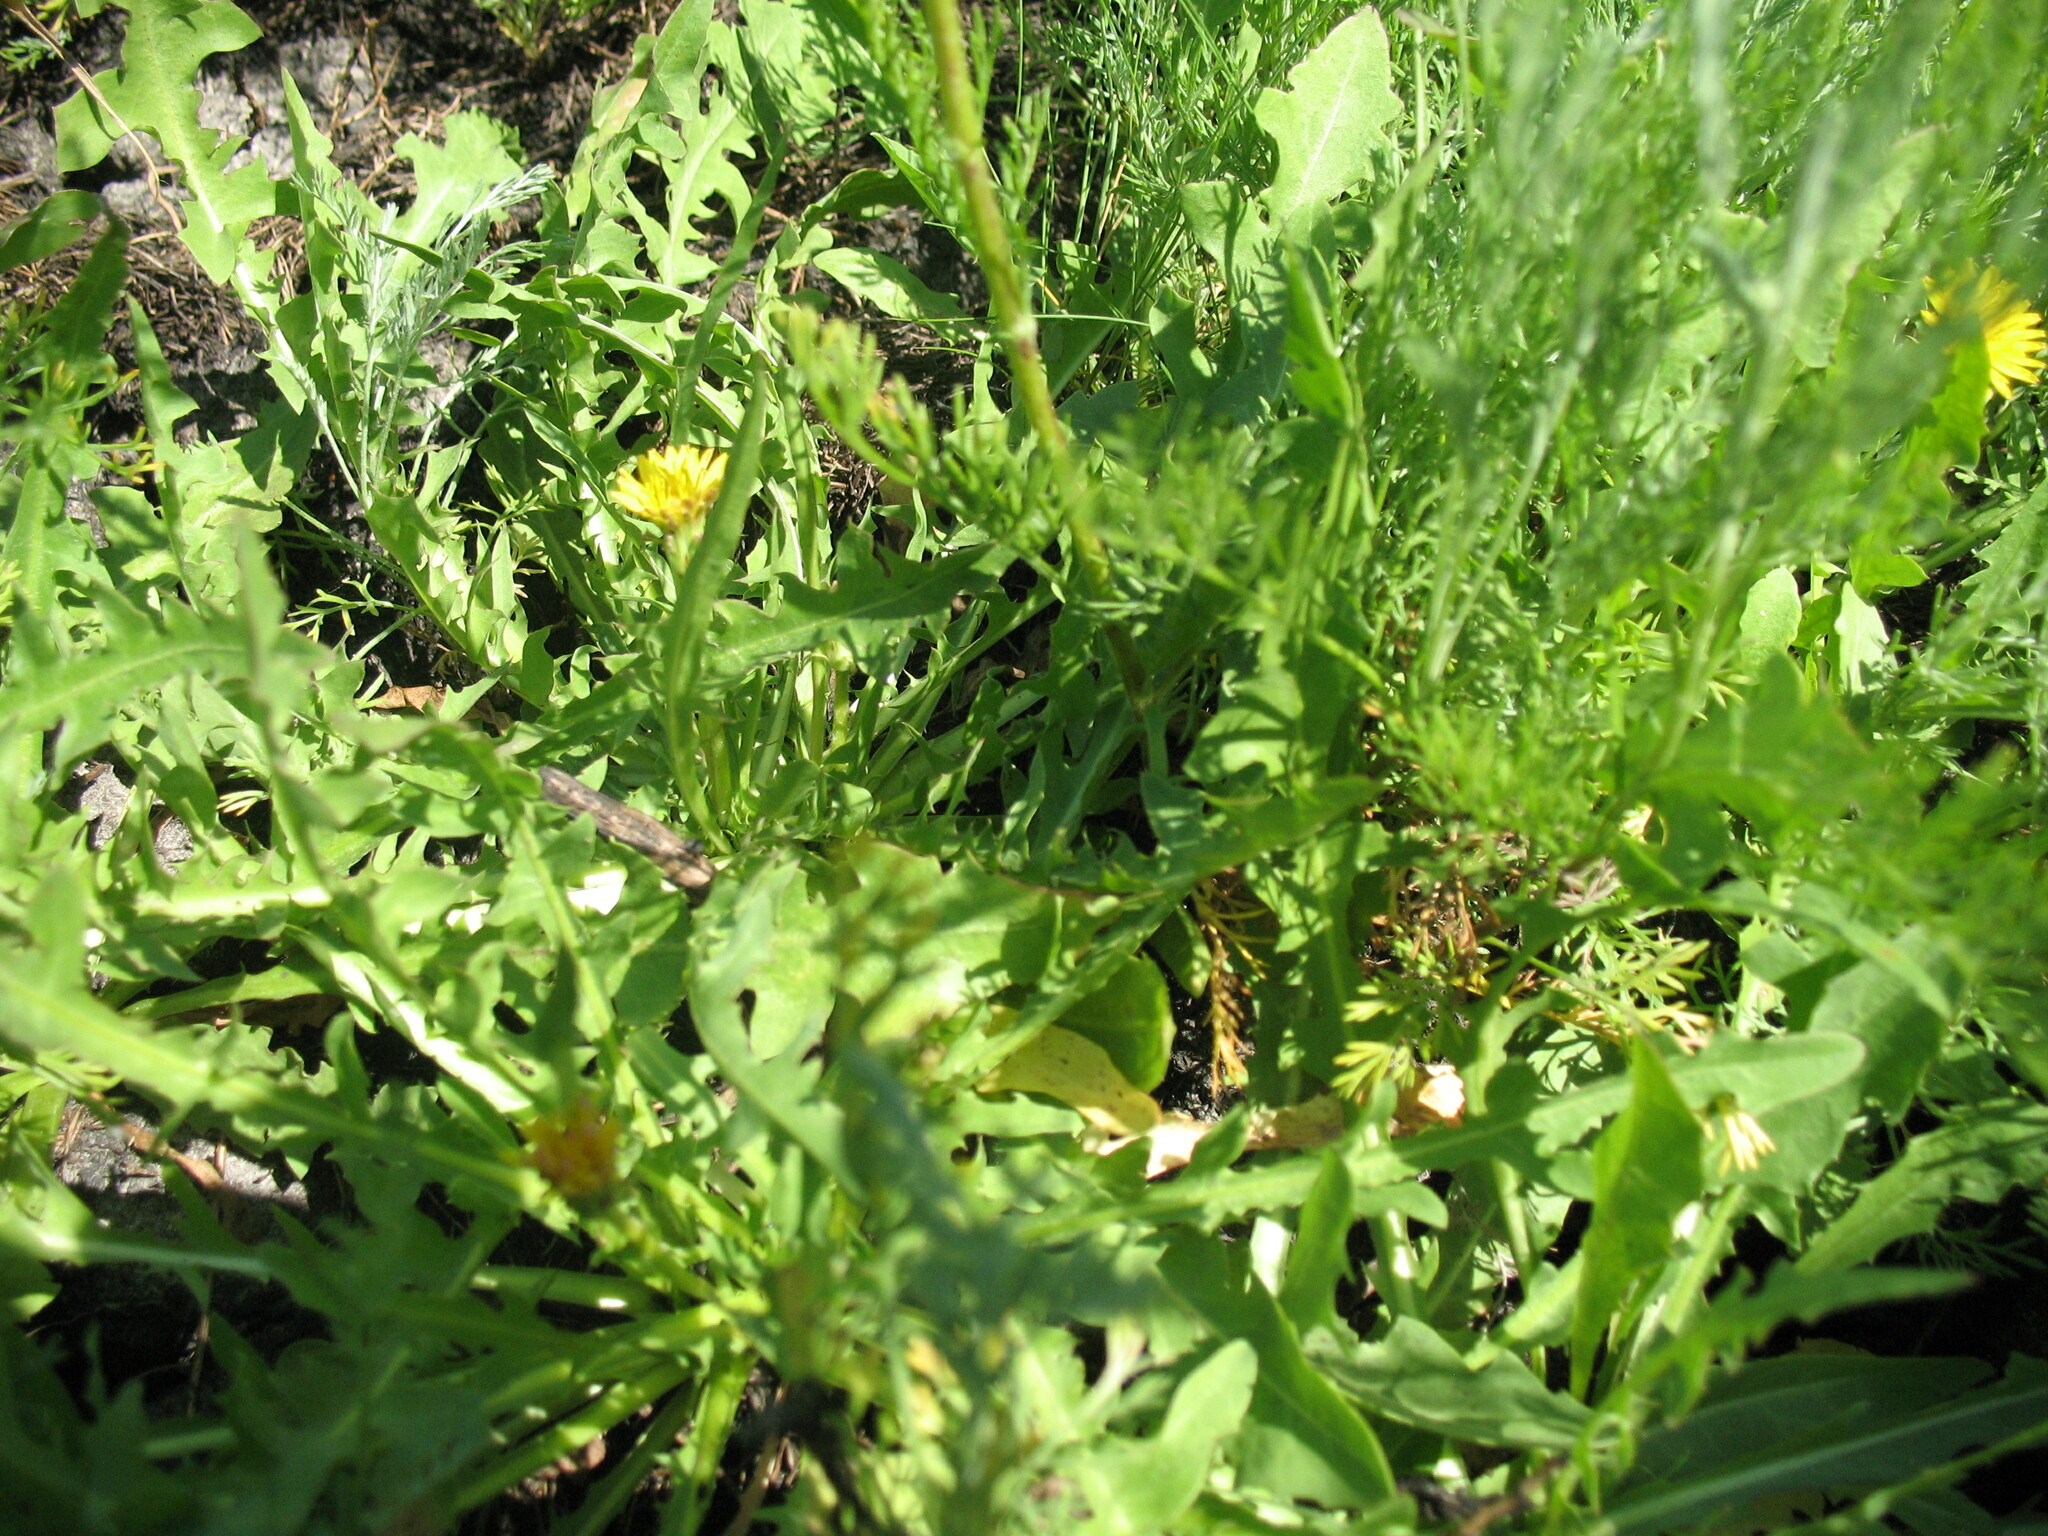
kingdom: Plantae
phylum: Tracheophyta
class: Magnoliopsida
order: Asterales
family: Asteraceae
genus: Taraxacum
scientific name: Taraxacum bessarabicum
